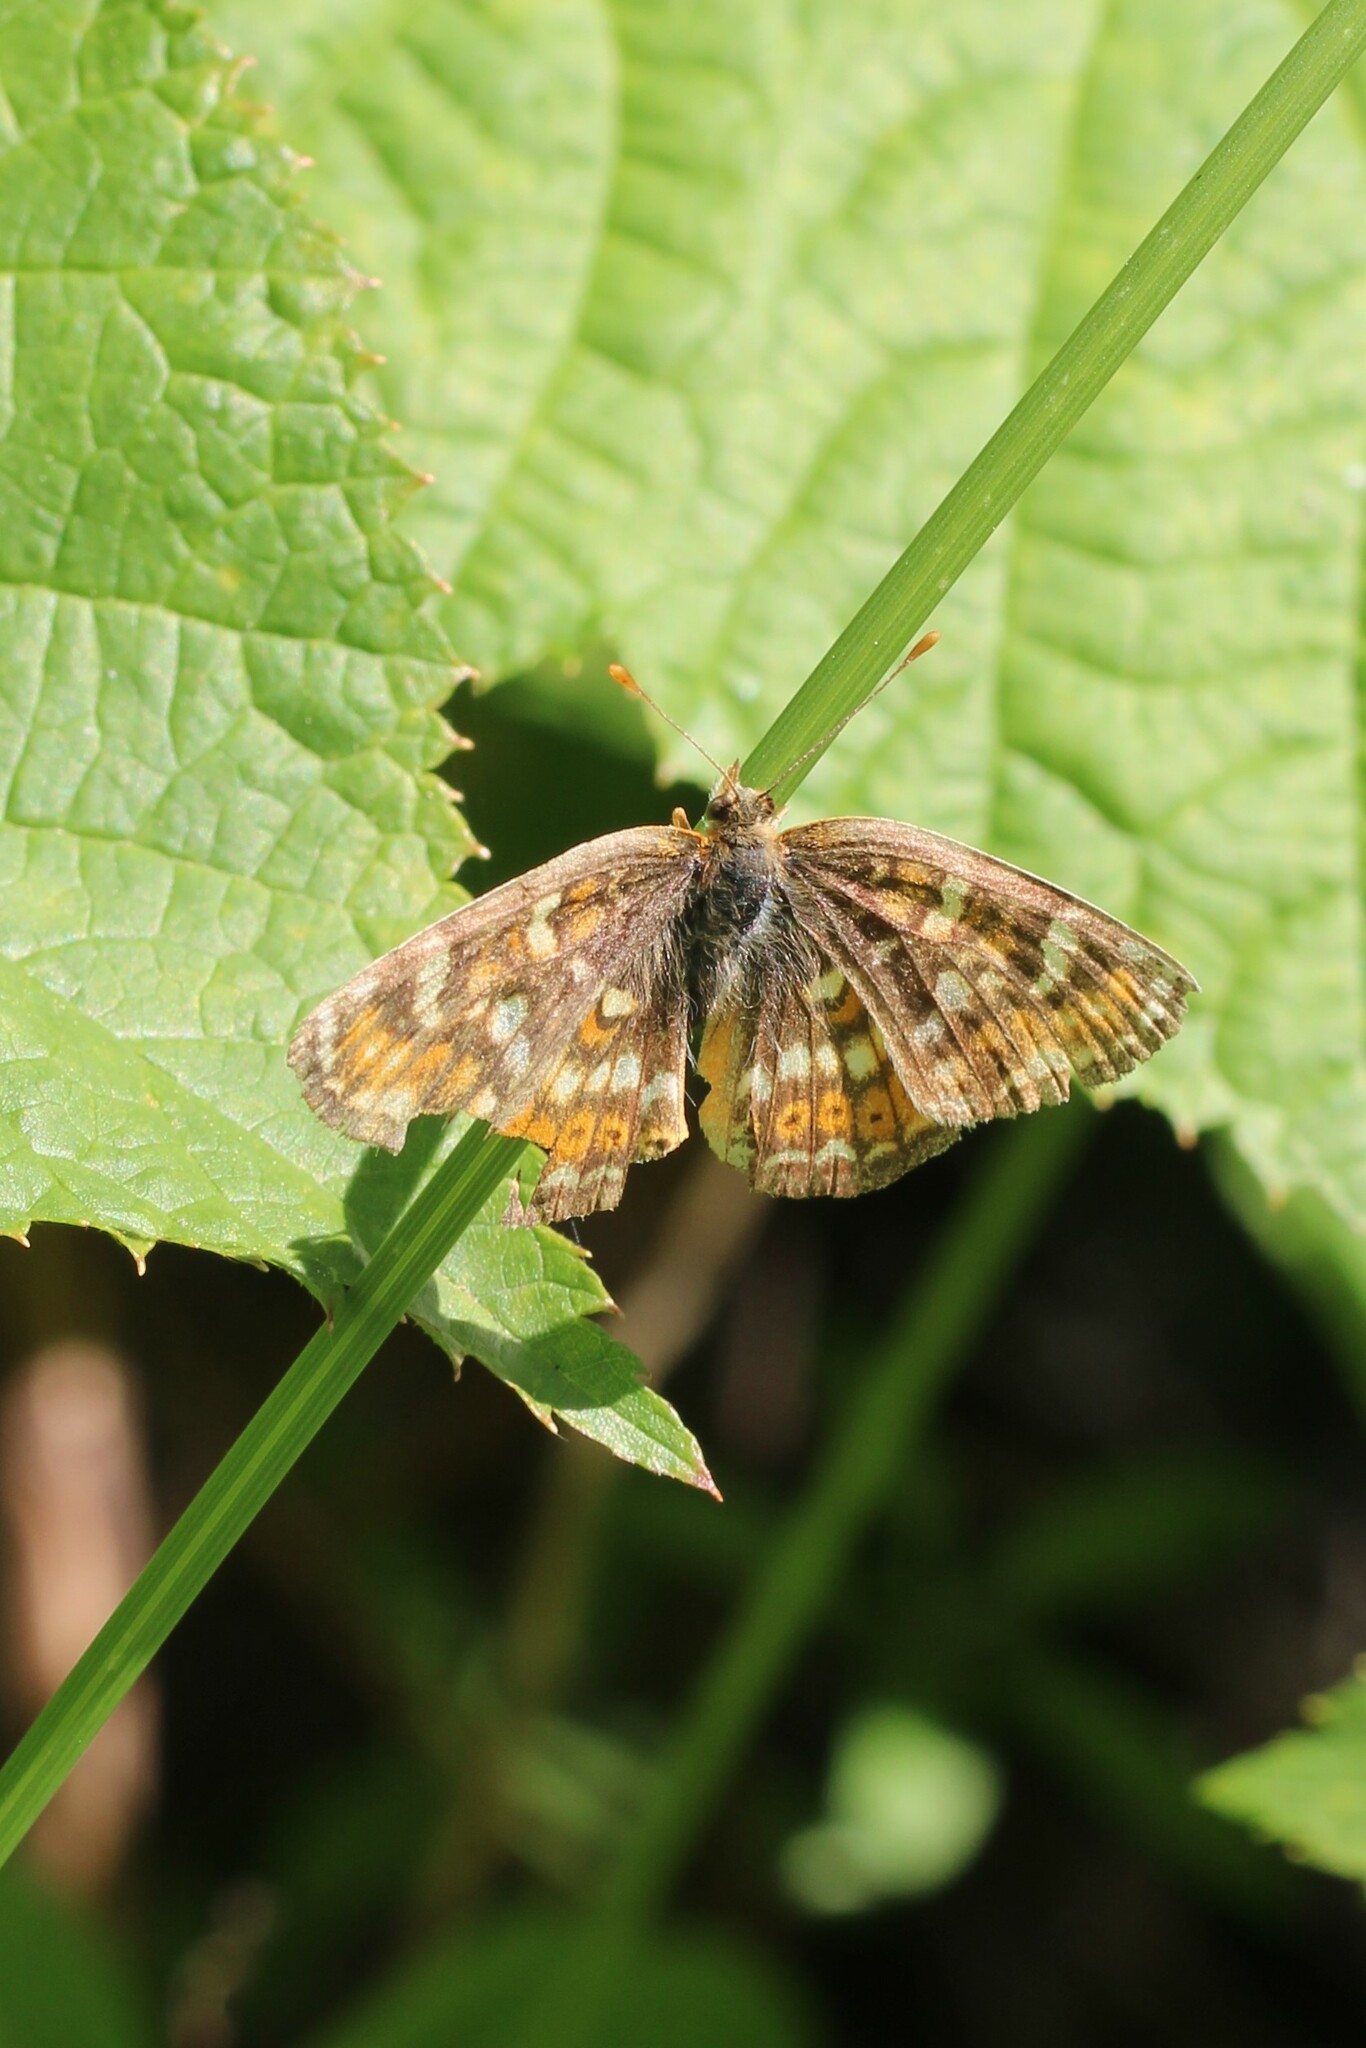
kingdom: Animalia
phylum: Arthropoda
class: Insecta
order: Lepidoptera
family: Nymphalidae
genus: Phyciodes
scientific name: Phyciodes tharos
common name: Pearl crescent
